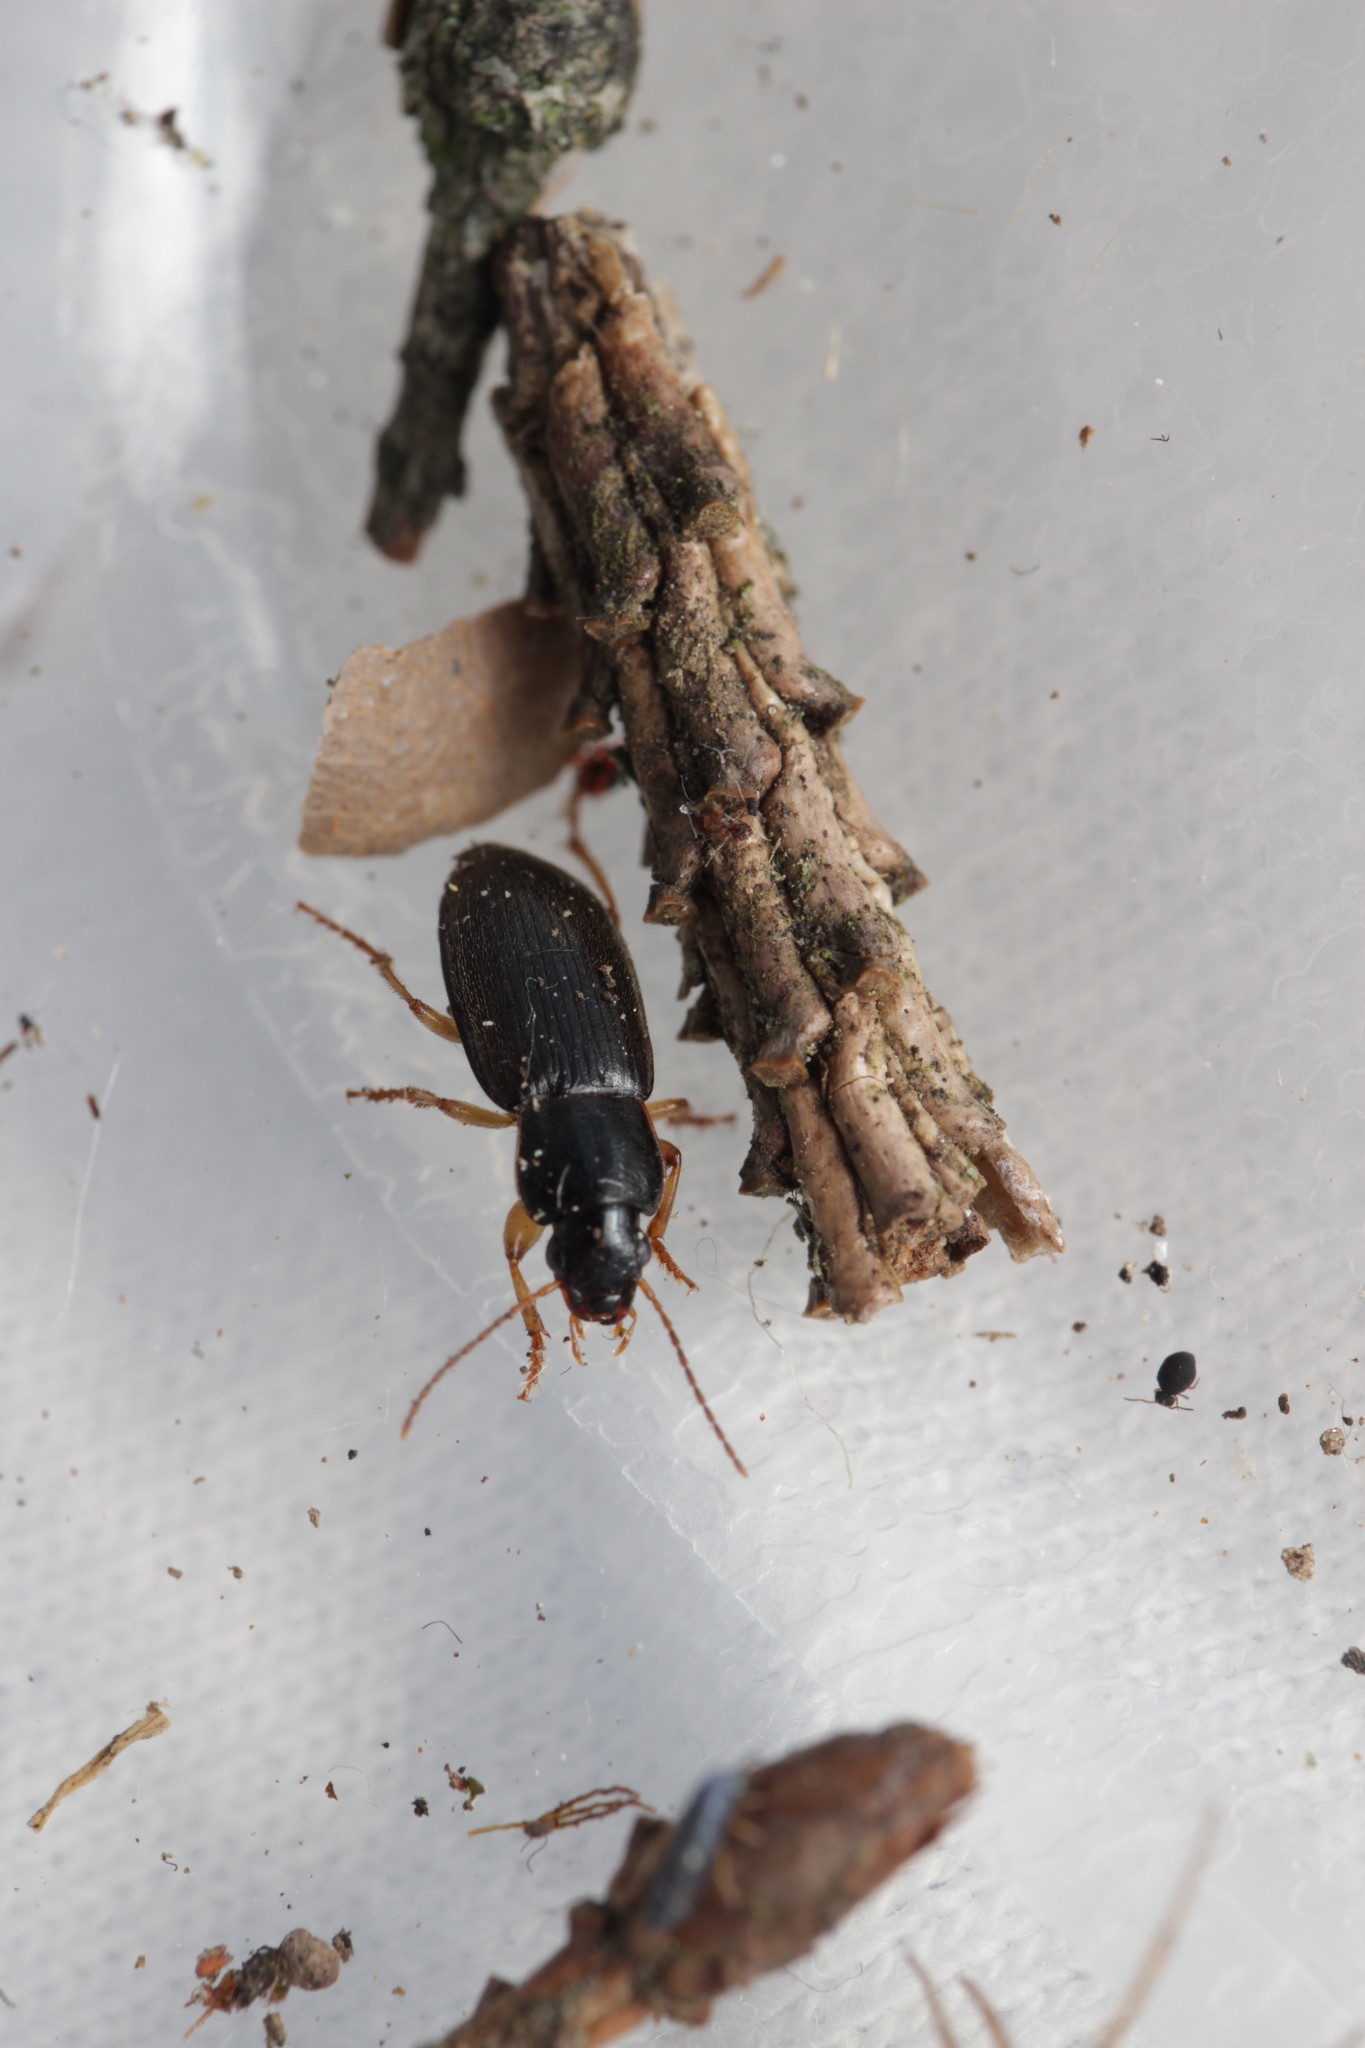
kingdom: Animalia
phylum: Arthropoda
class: Insecta
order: Coleoptera
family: Carabidae
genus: Parophonus
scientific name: Parophonus dejeani
